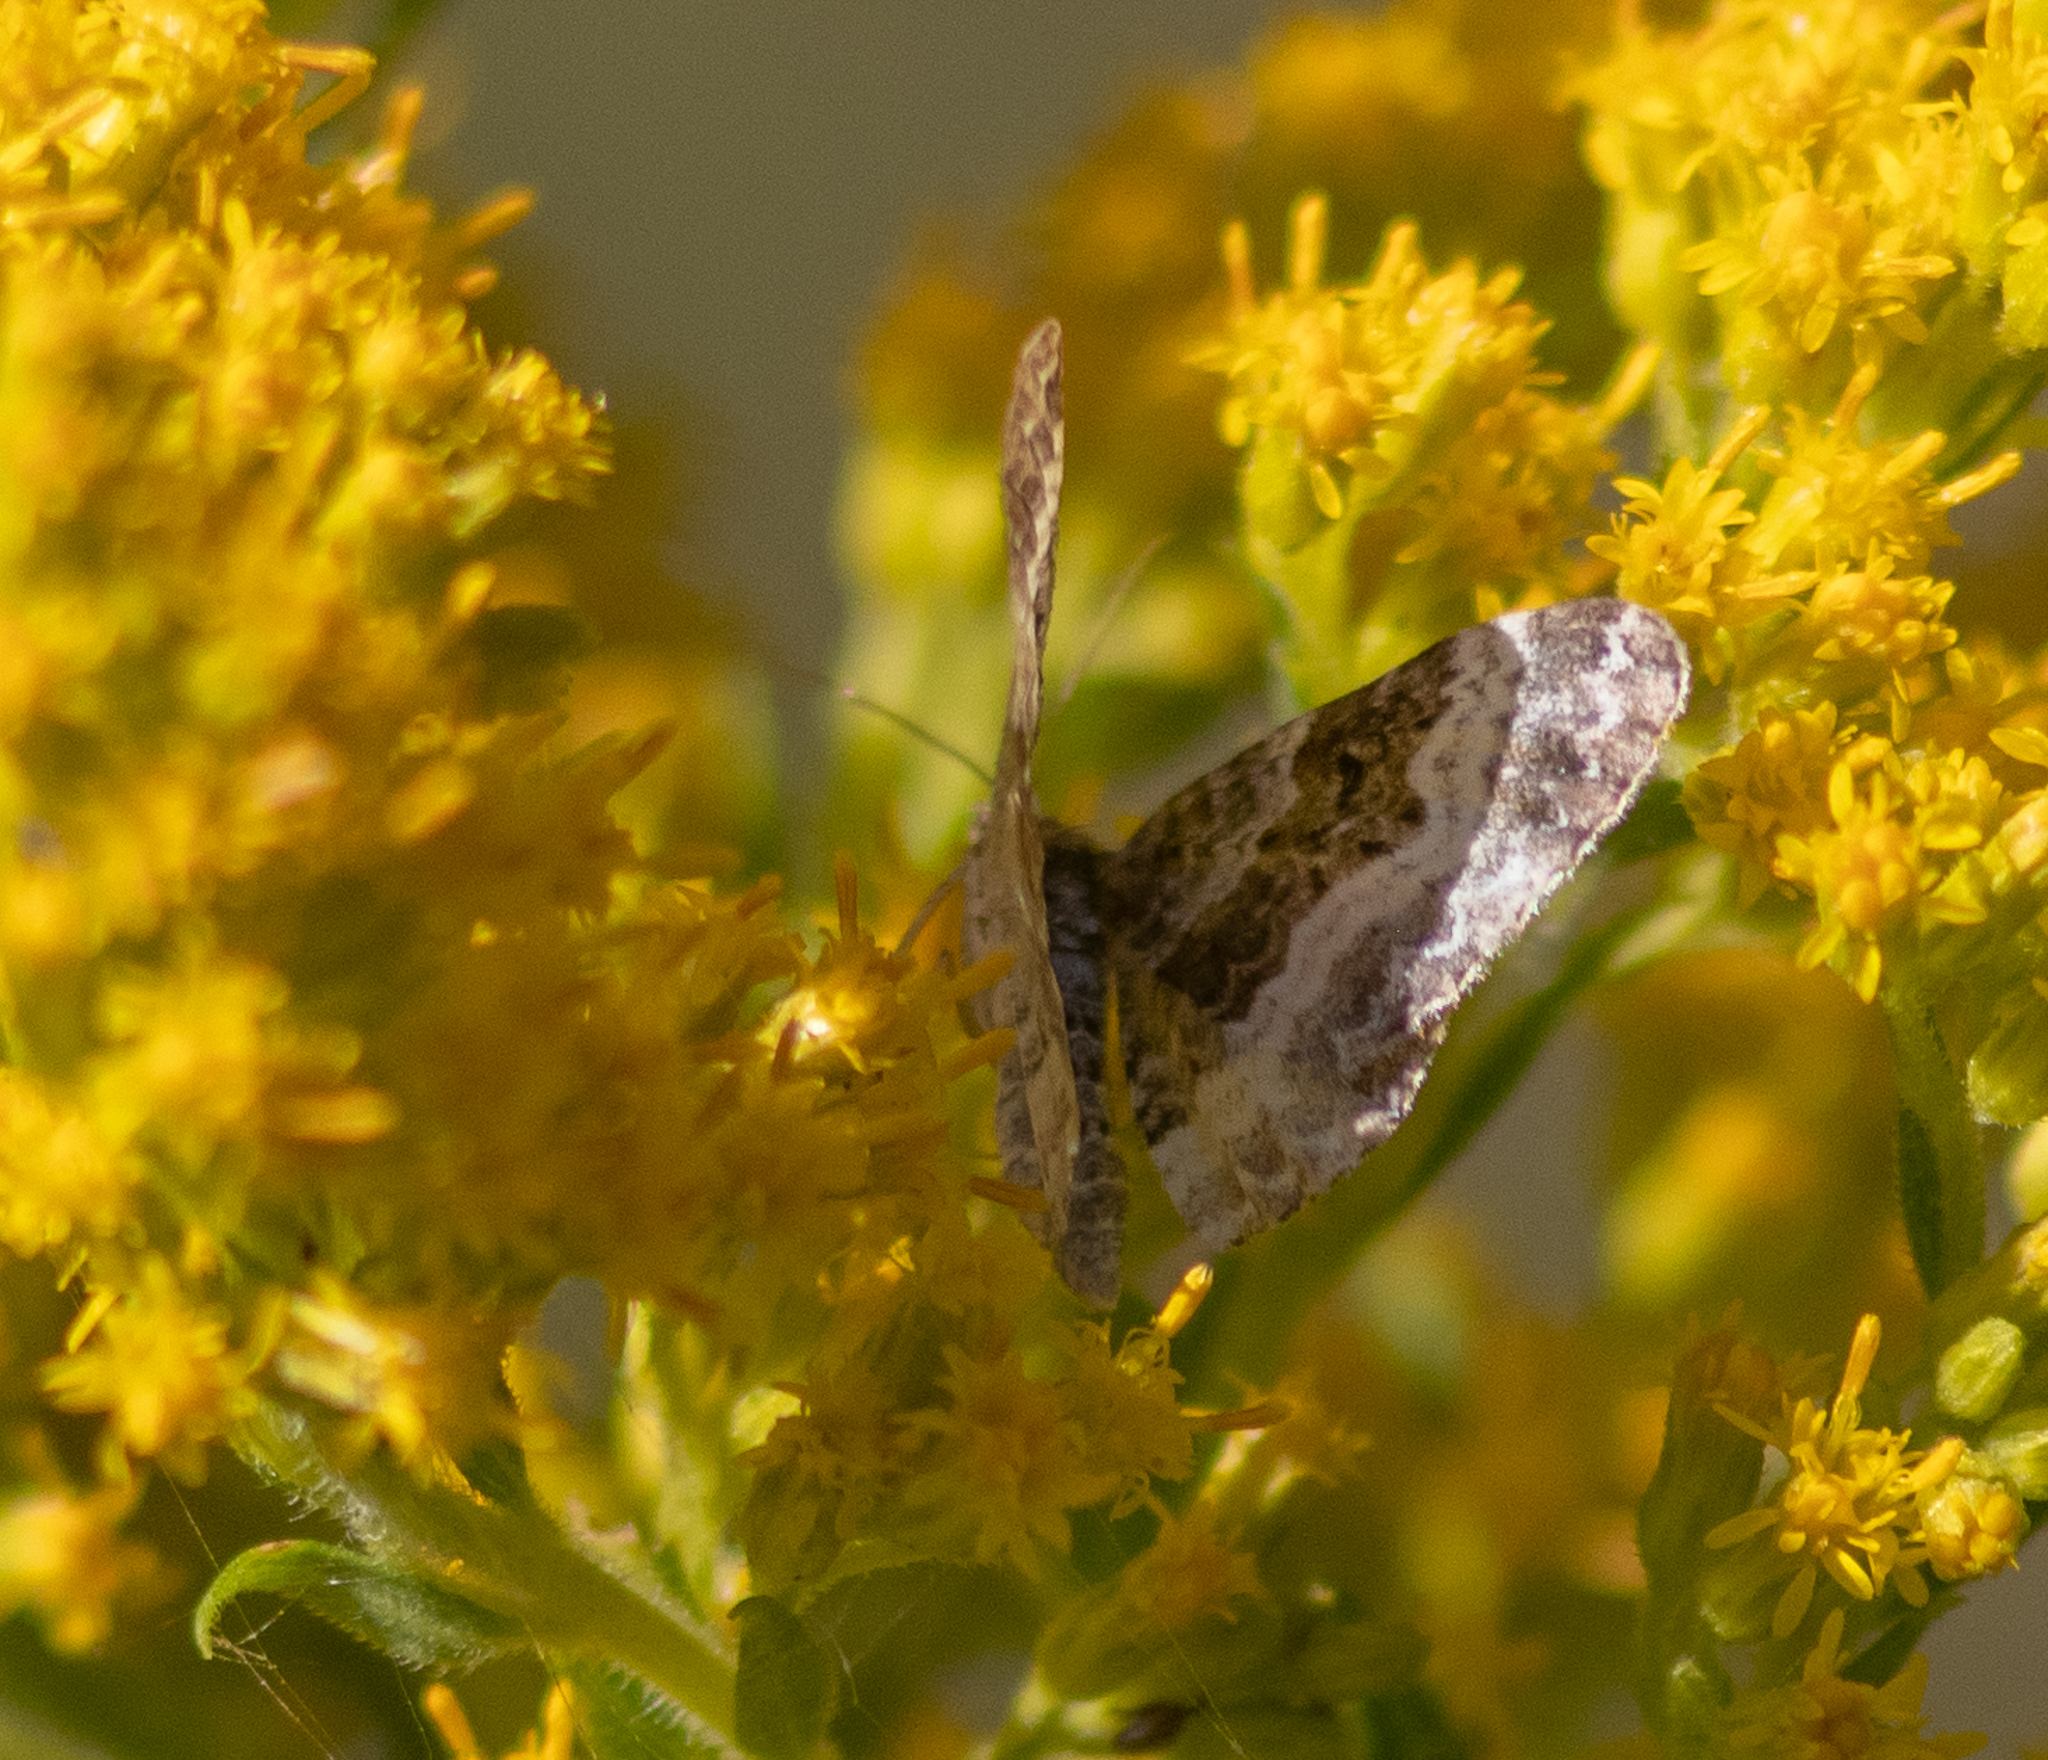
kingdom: Animalia
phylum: Arthropoda
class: Insecta
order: Lepidoptera
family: Geometridae
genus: Epirrhoe
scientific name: Epirrhoe alternata
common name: Common carpet
